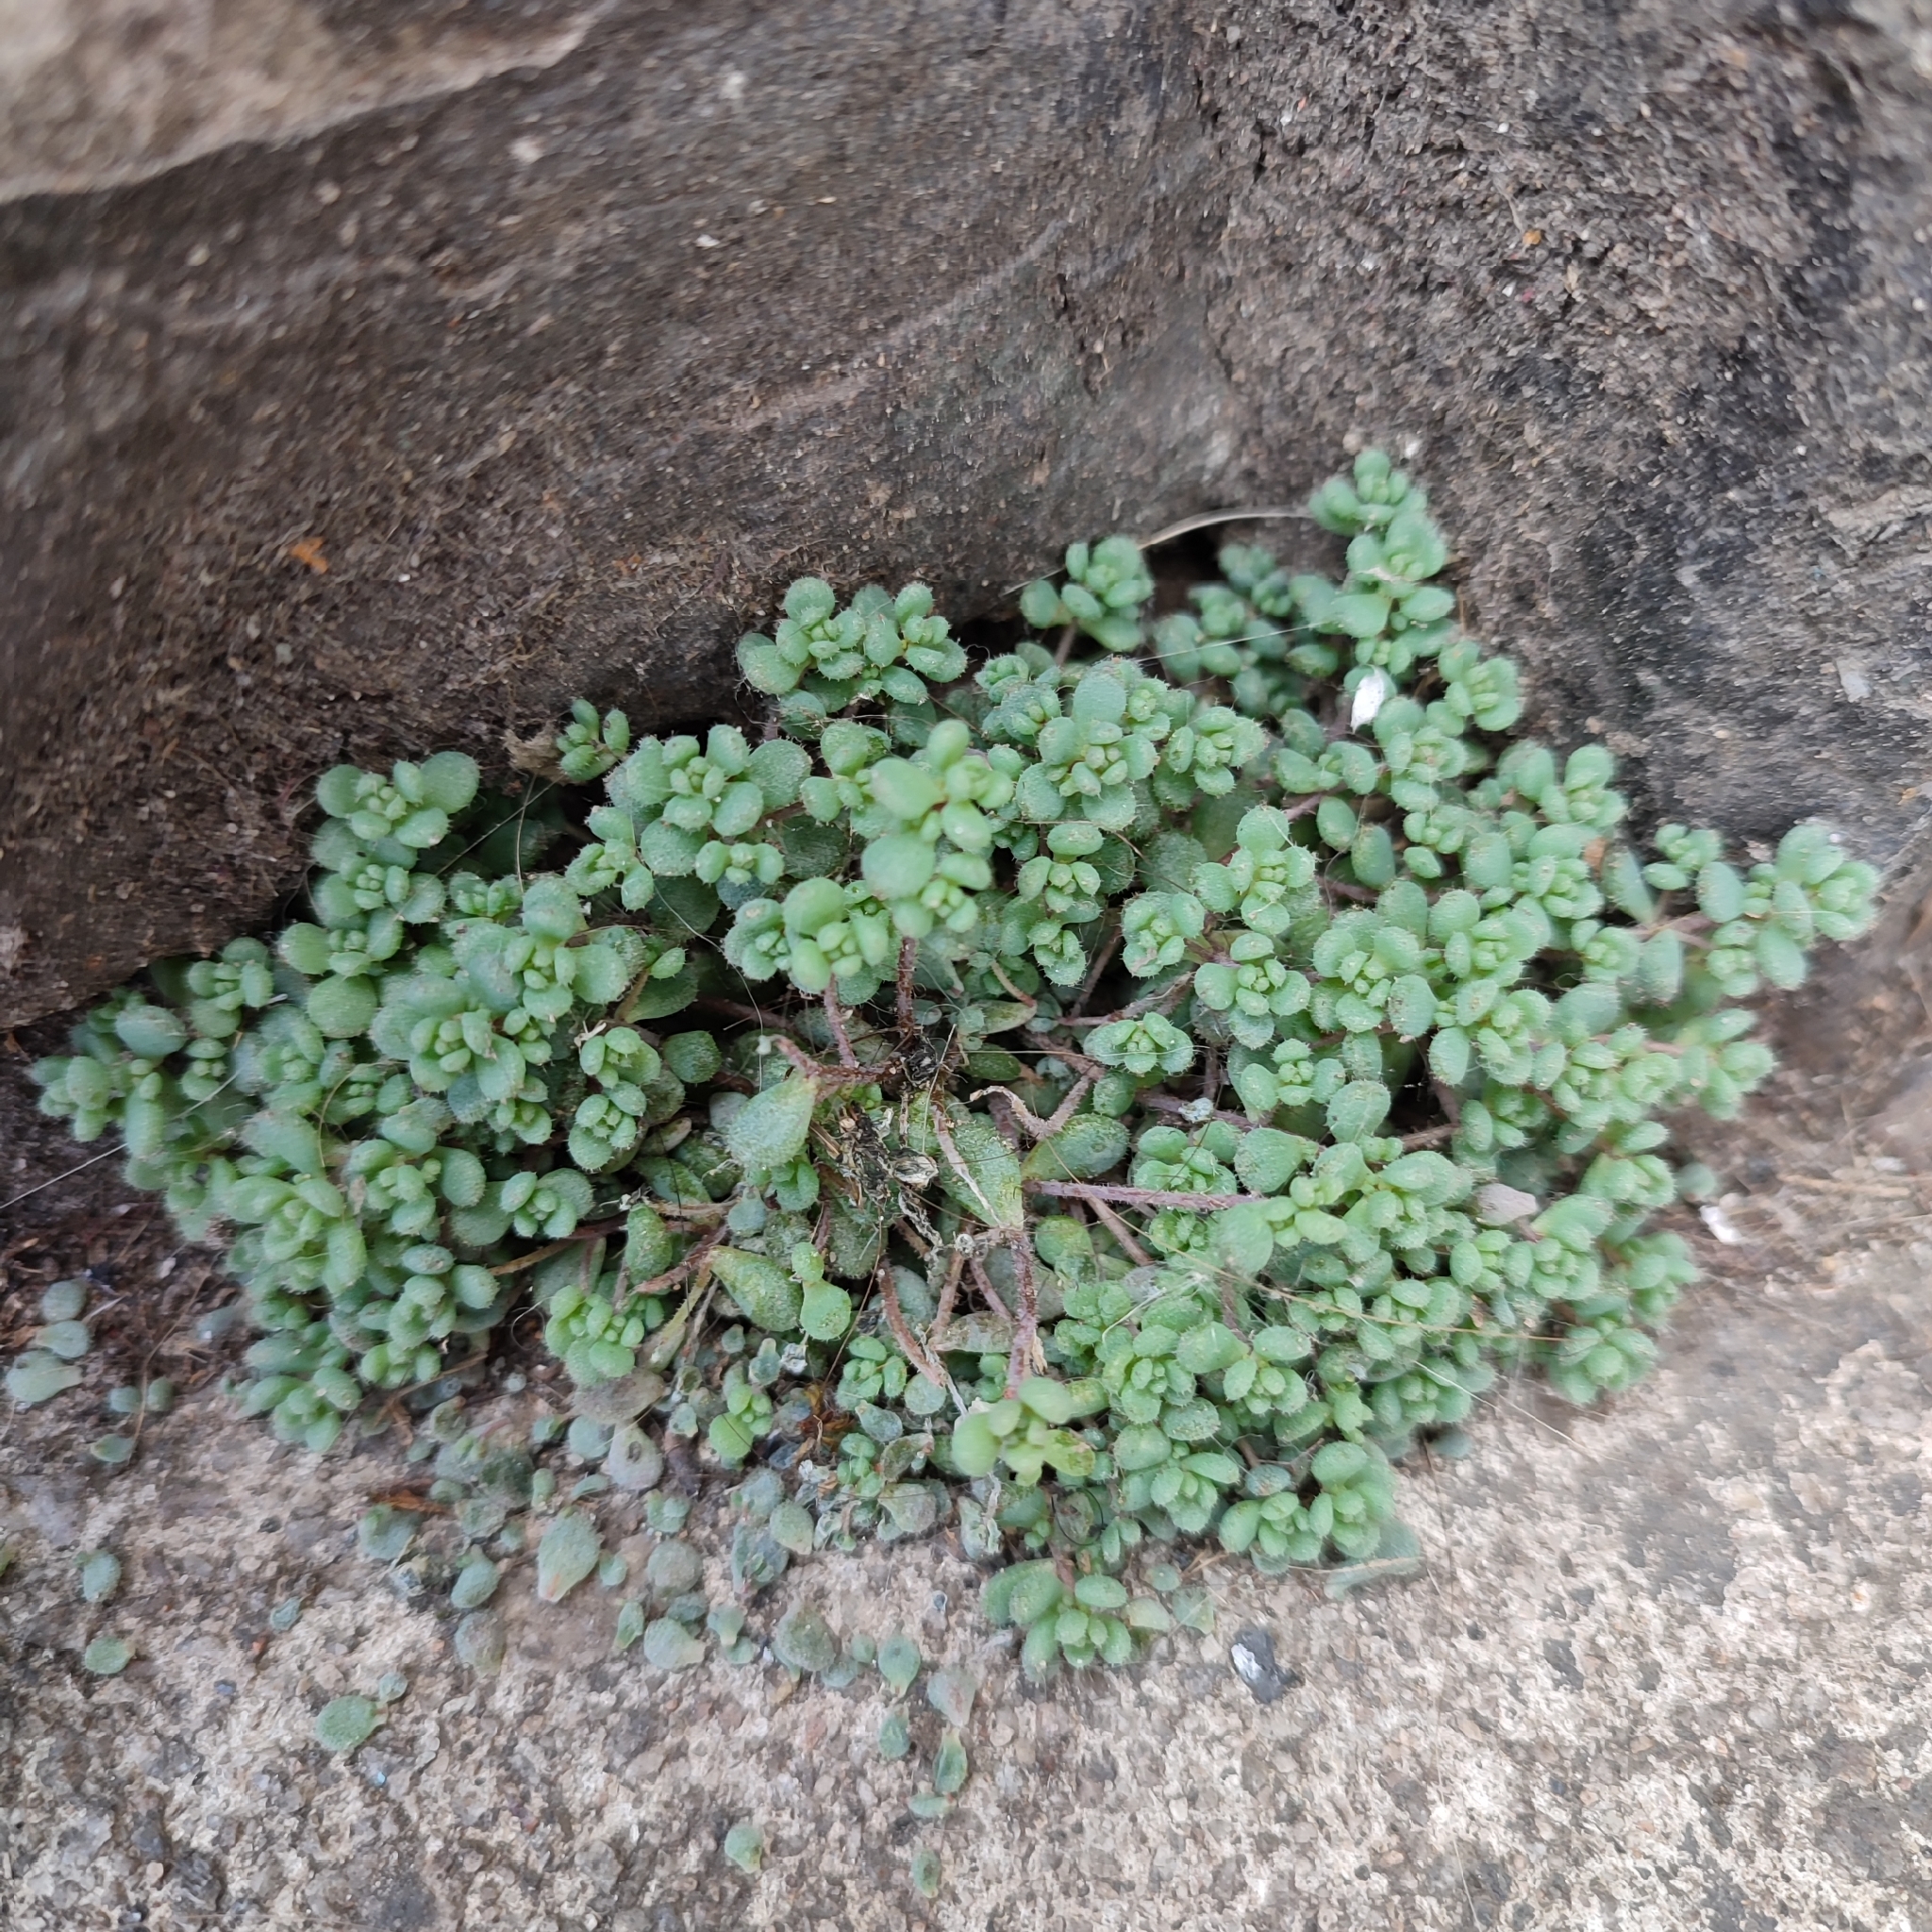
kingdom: Plantae
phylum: Tracheophyta
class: Magnoliopsida
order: Saxifragales
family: Crassulaceae
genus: Sedum
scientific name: Sedum dasyphyllum
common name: Thick-leaf stonecrop
